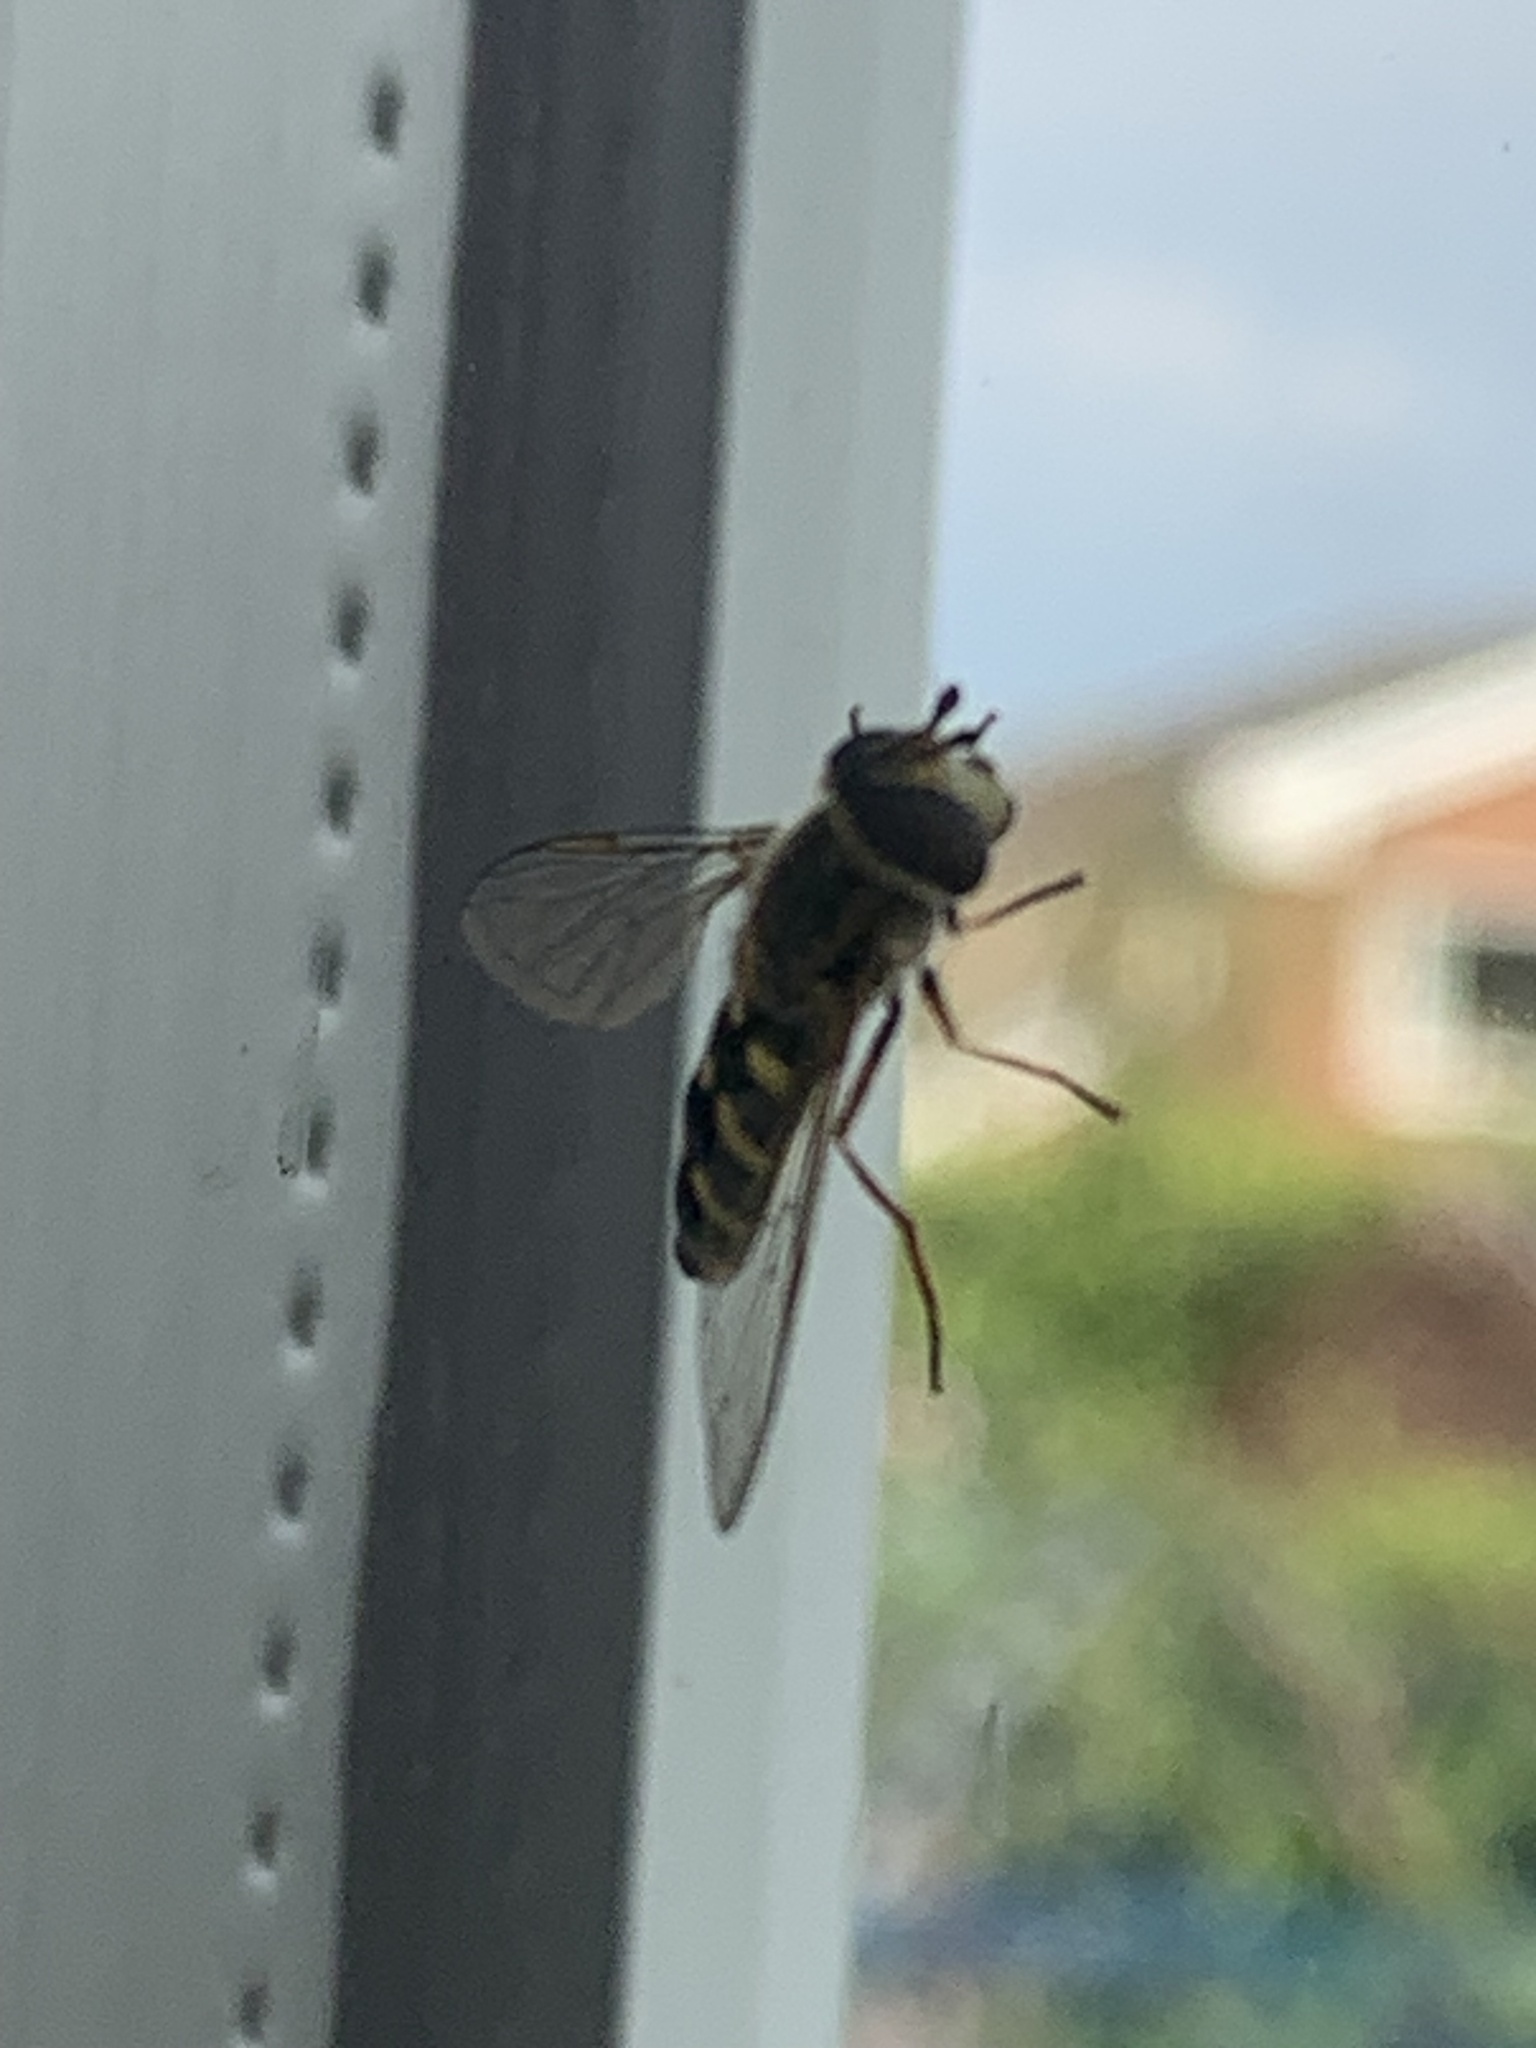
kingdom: Animalia
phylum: Arthropoda
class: Insecta
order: Diptera
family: Syrphidae
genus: Scaeva
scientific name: Scaeva pyrastri
